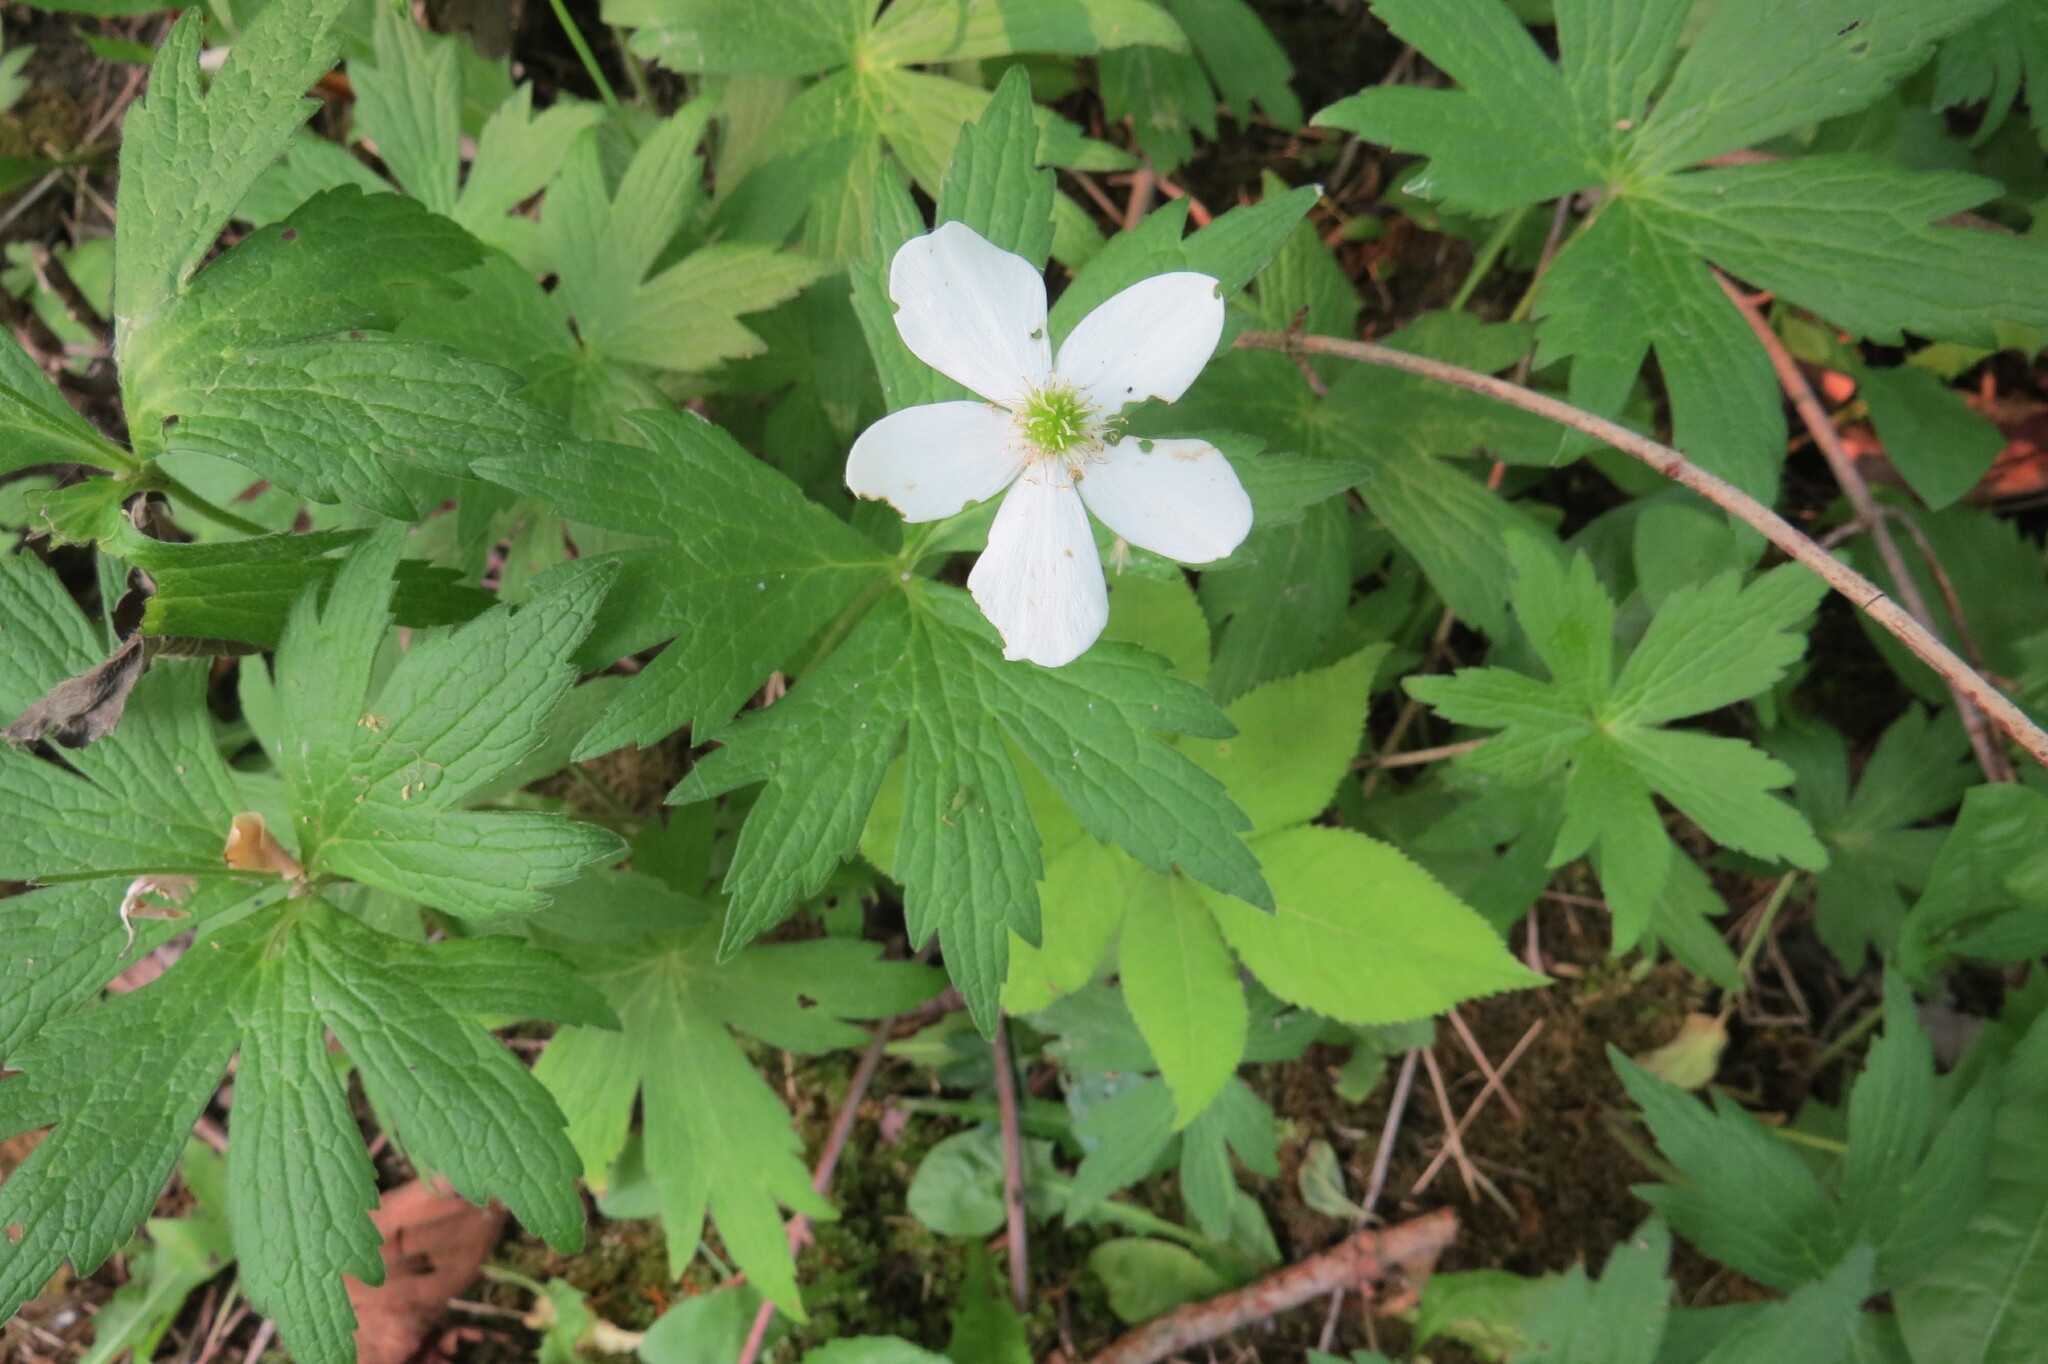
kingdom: Plantae
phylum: Tracheophyta
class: Magnoliopsida
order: Ranunculales
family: Ranunculaceae
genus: Anemonastrum
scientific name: Anemonastrum canadense
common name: Canada anemone
